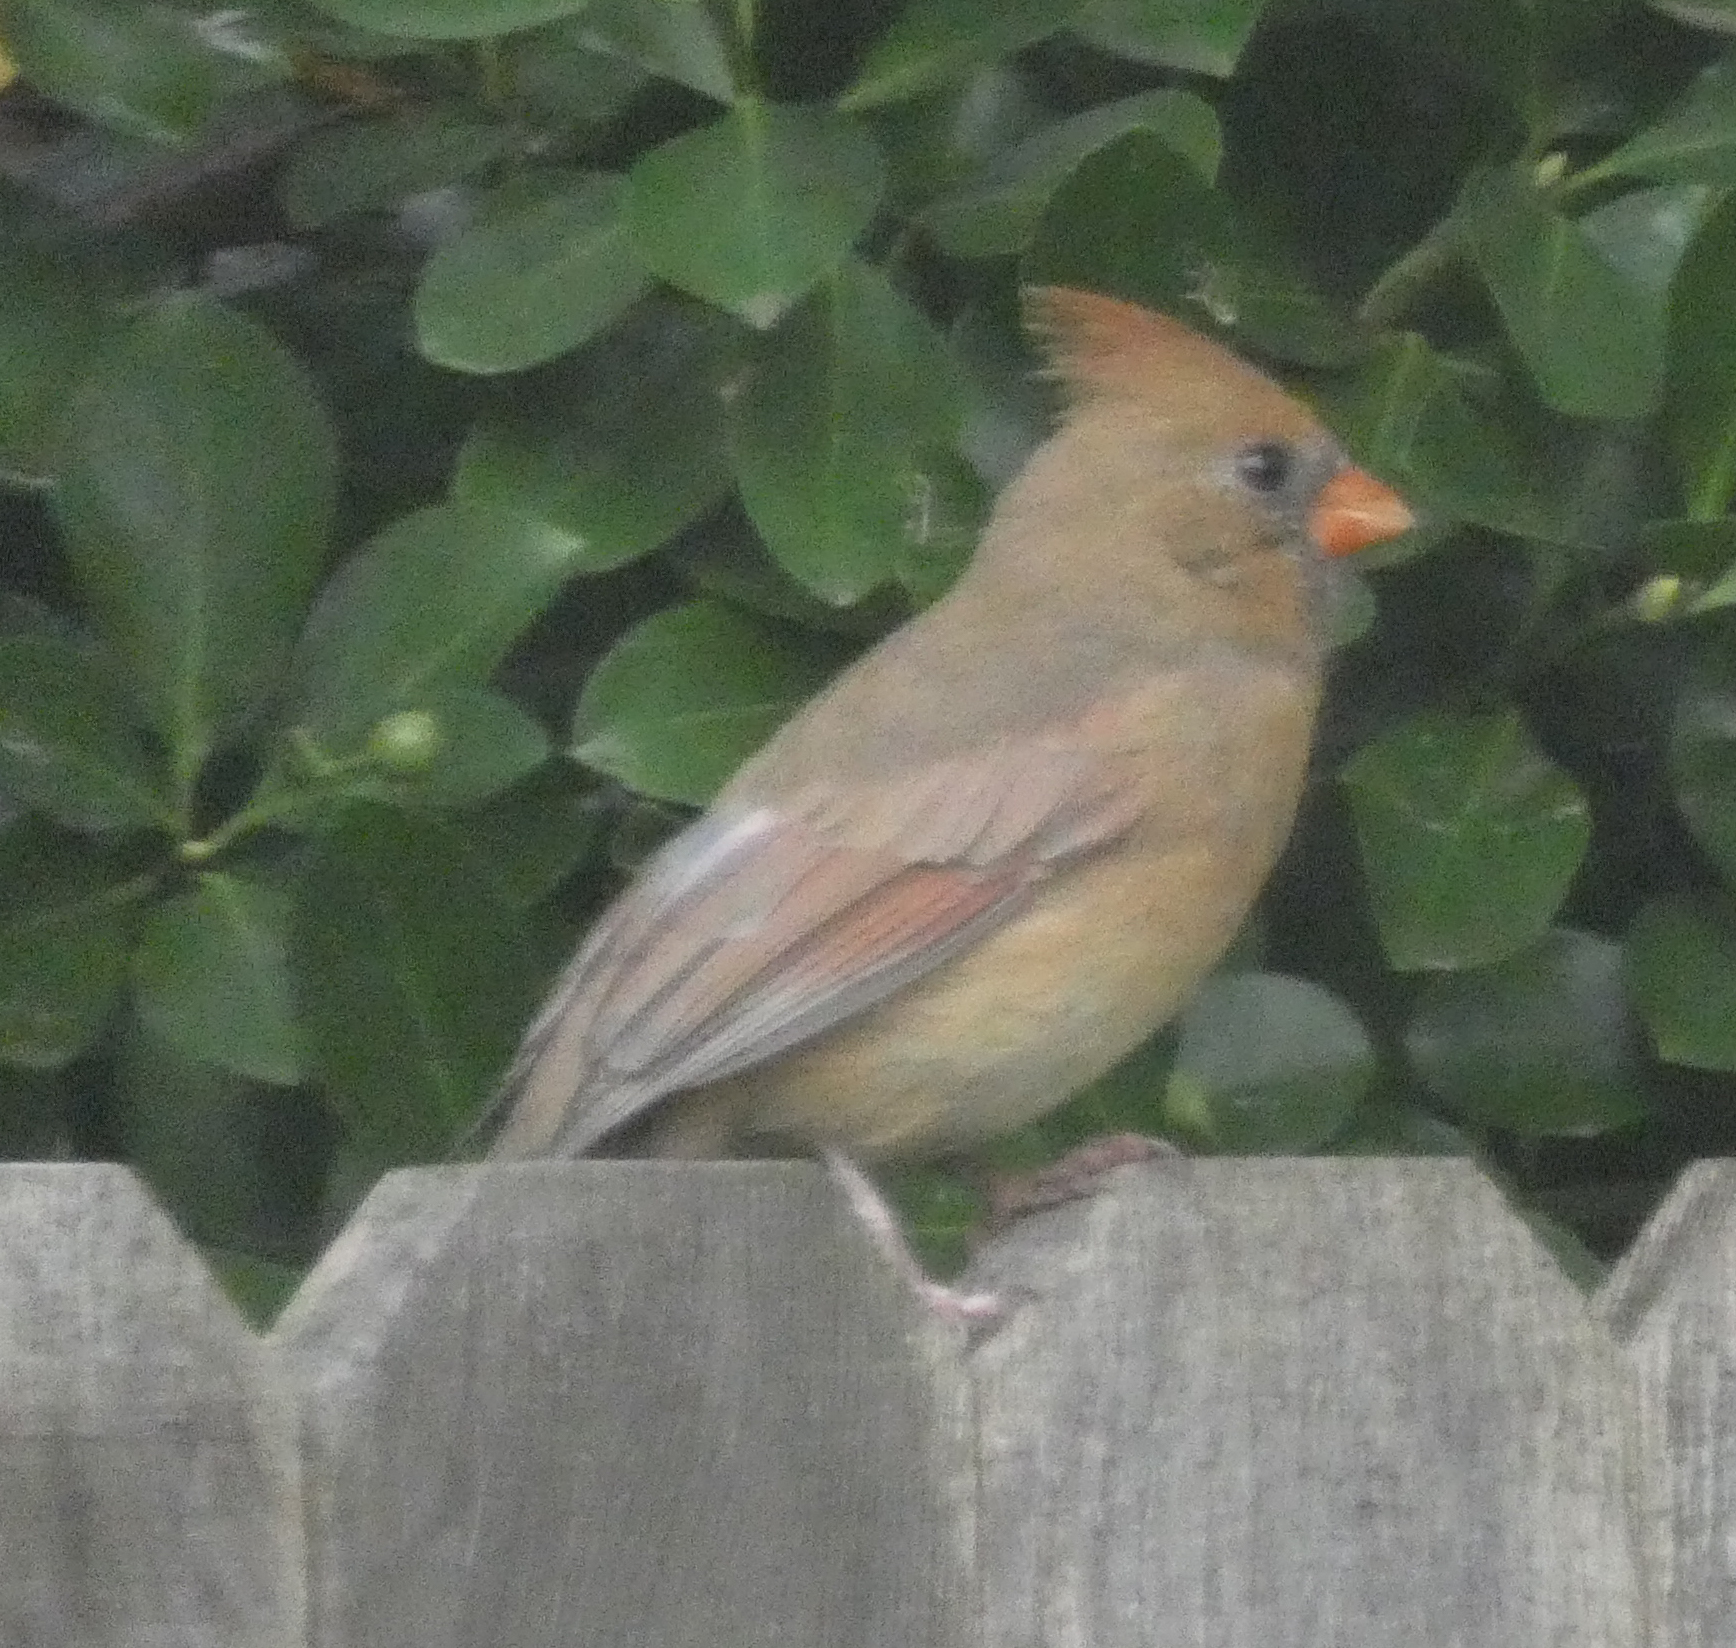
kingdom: Animalia
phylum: Chordata
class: Aves
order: Passeriformes
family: Cardinalidae
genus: Cardinalis
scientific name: Cardinalis cardinalis
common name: Northern cardinal
